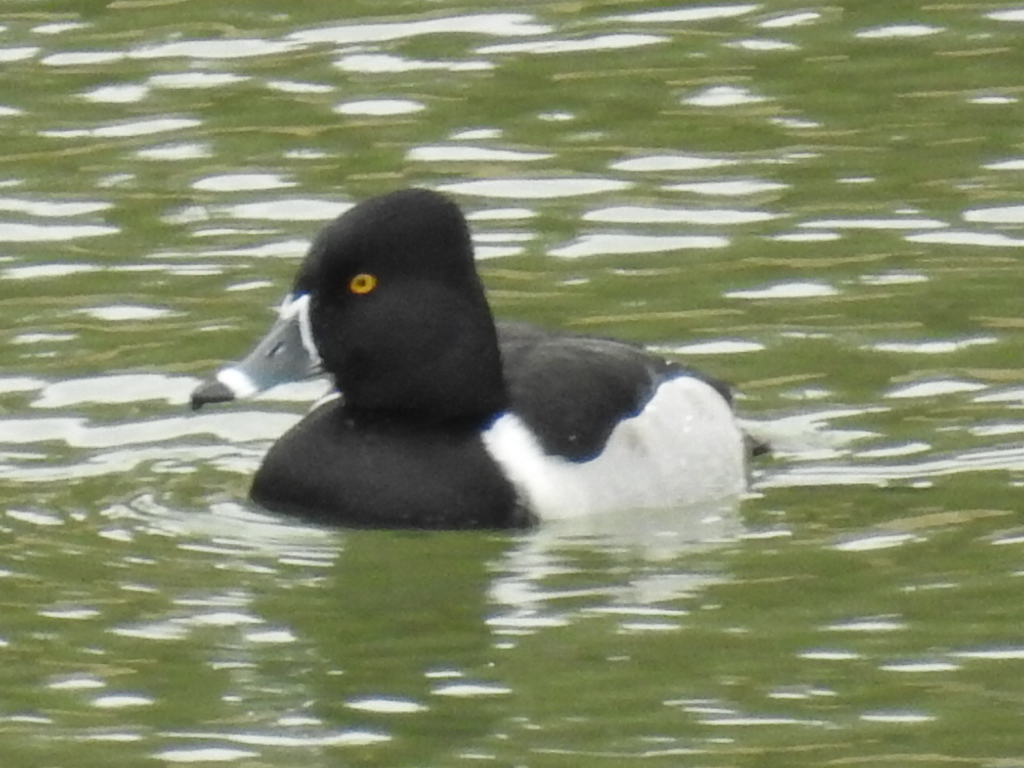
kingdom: Animalia
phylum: Chordata
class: Aves
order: Anseriformes
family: Anatidae
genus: Aythya
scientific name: Aythya collaris
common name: Ring-necked duck
